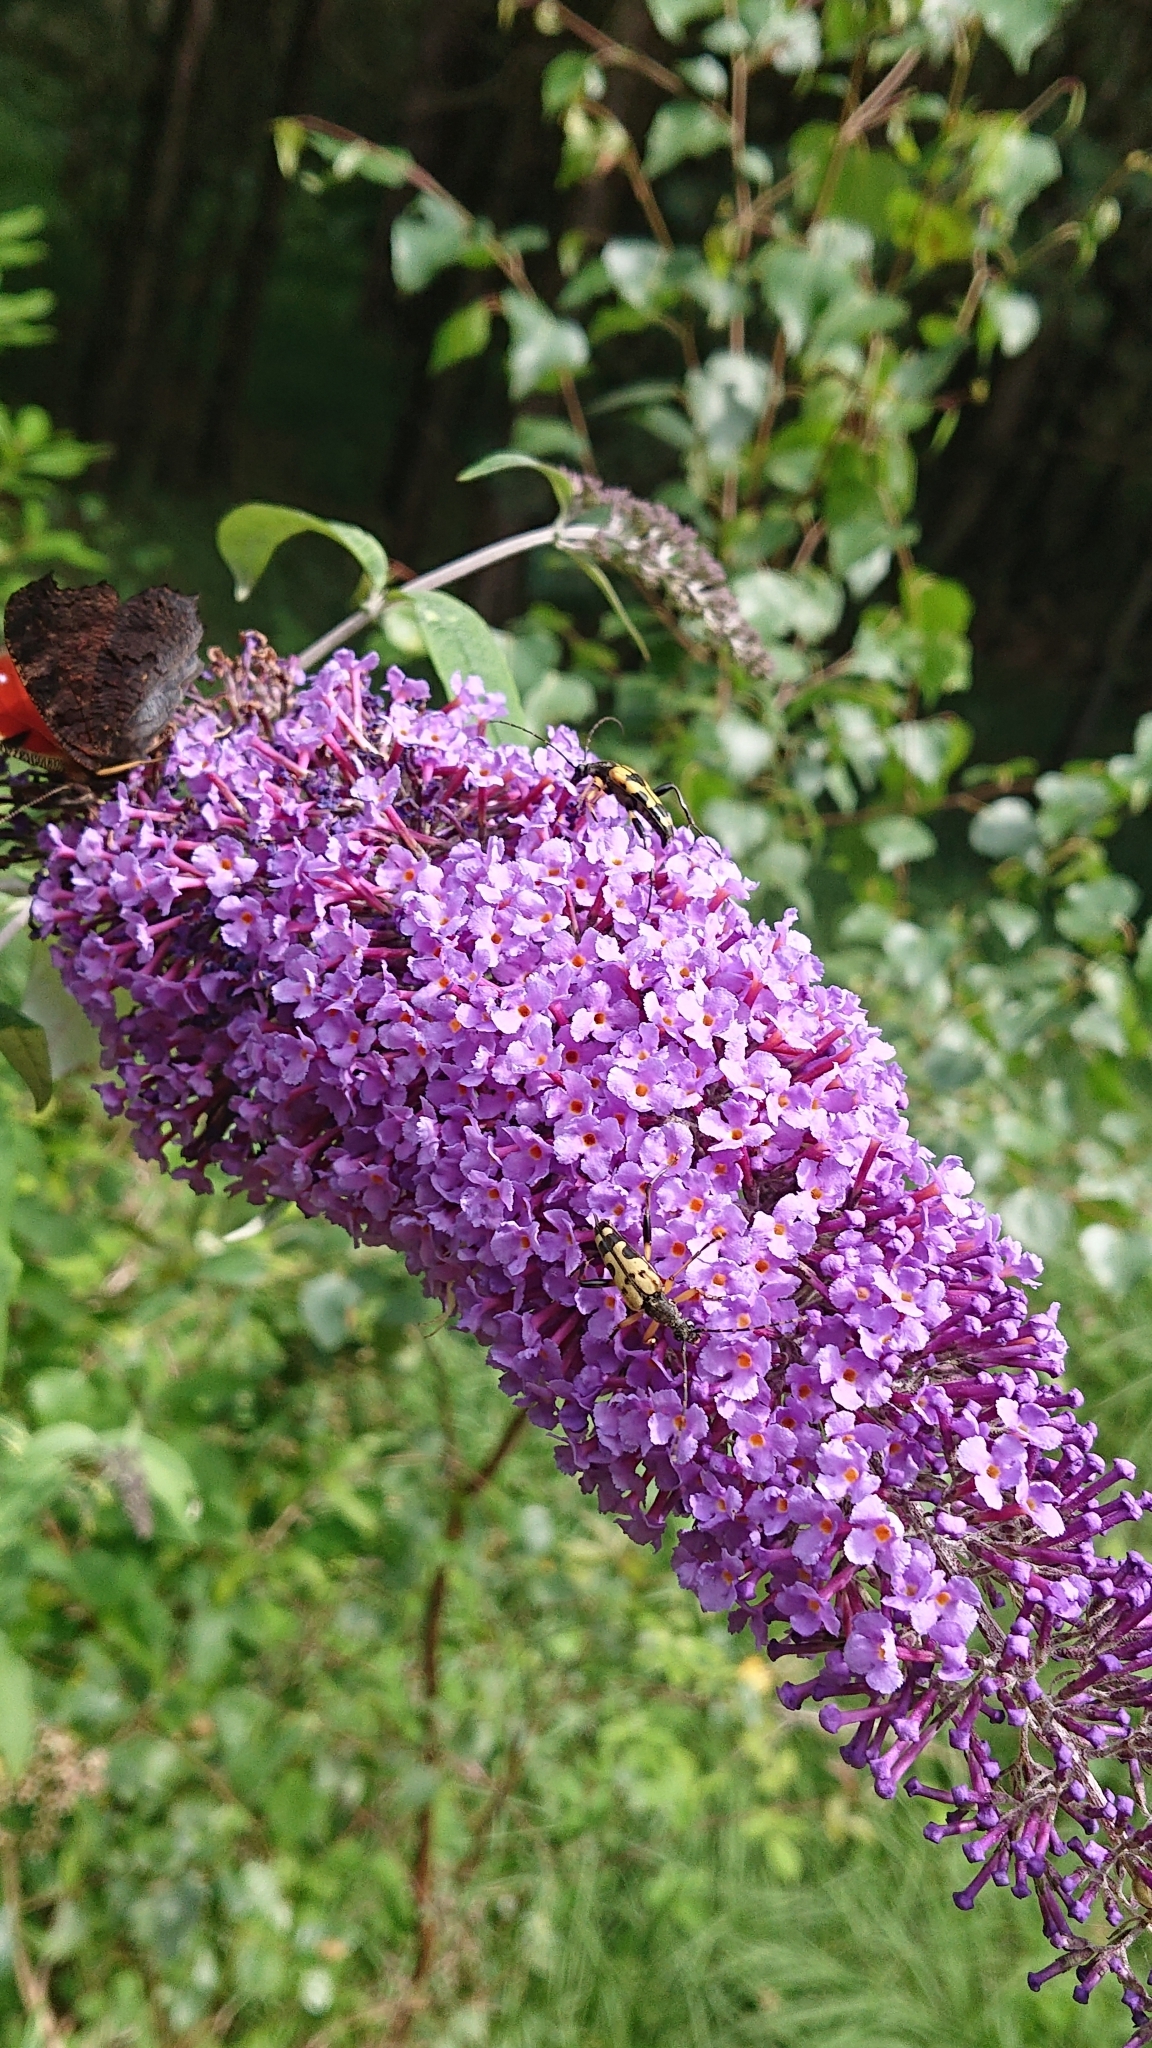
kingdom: Animalia
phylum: Arthropoda
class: Insecta
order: Coleoptera
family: Cerambycidae
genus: Rutpela
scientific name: Rutpela maculata
